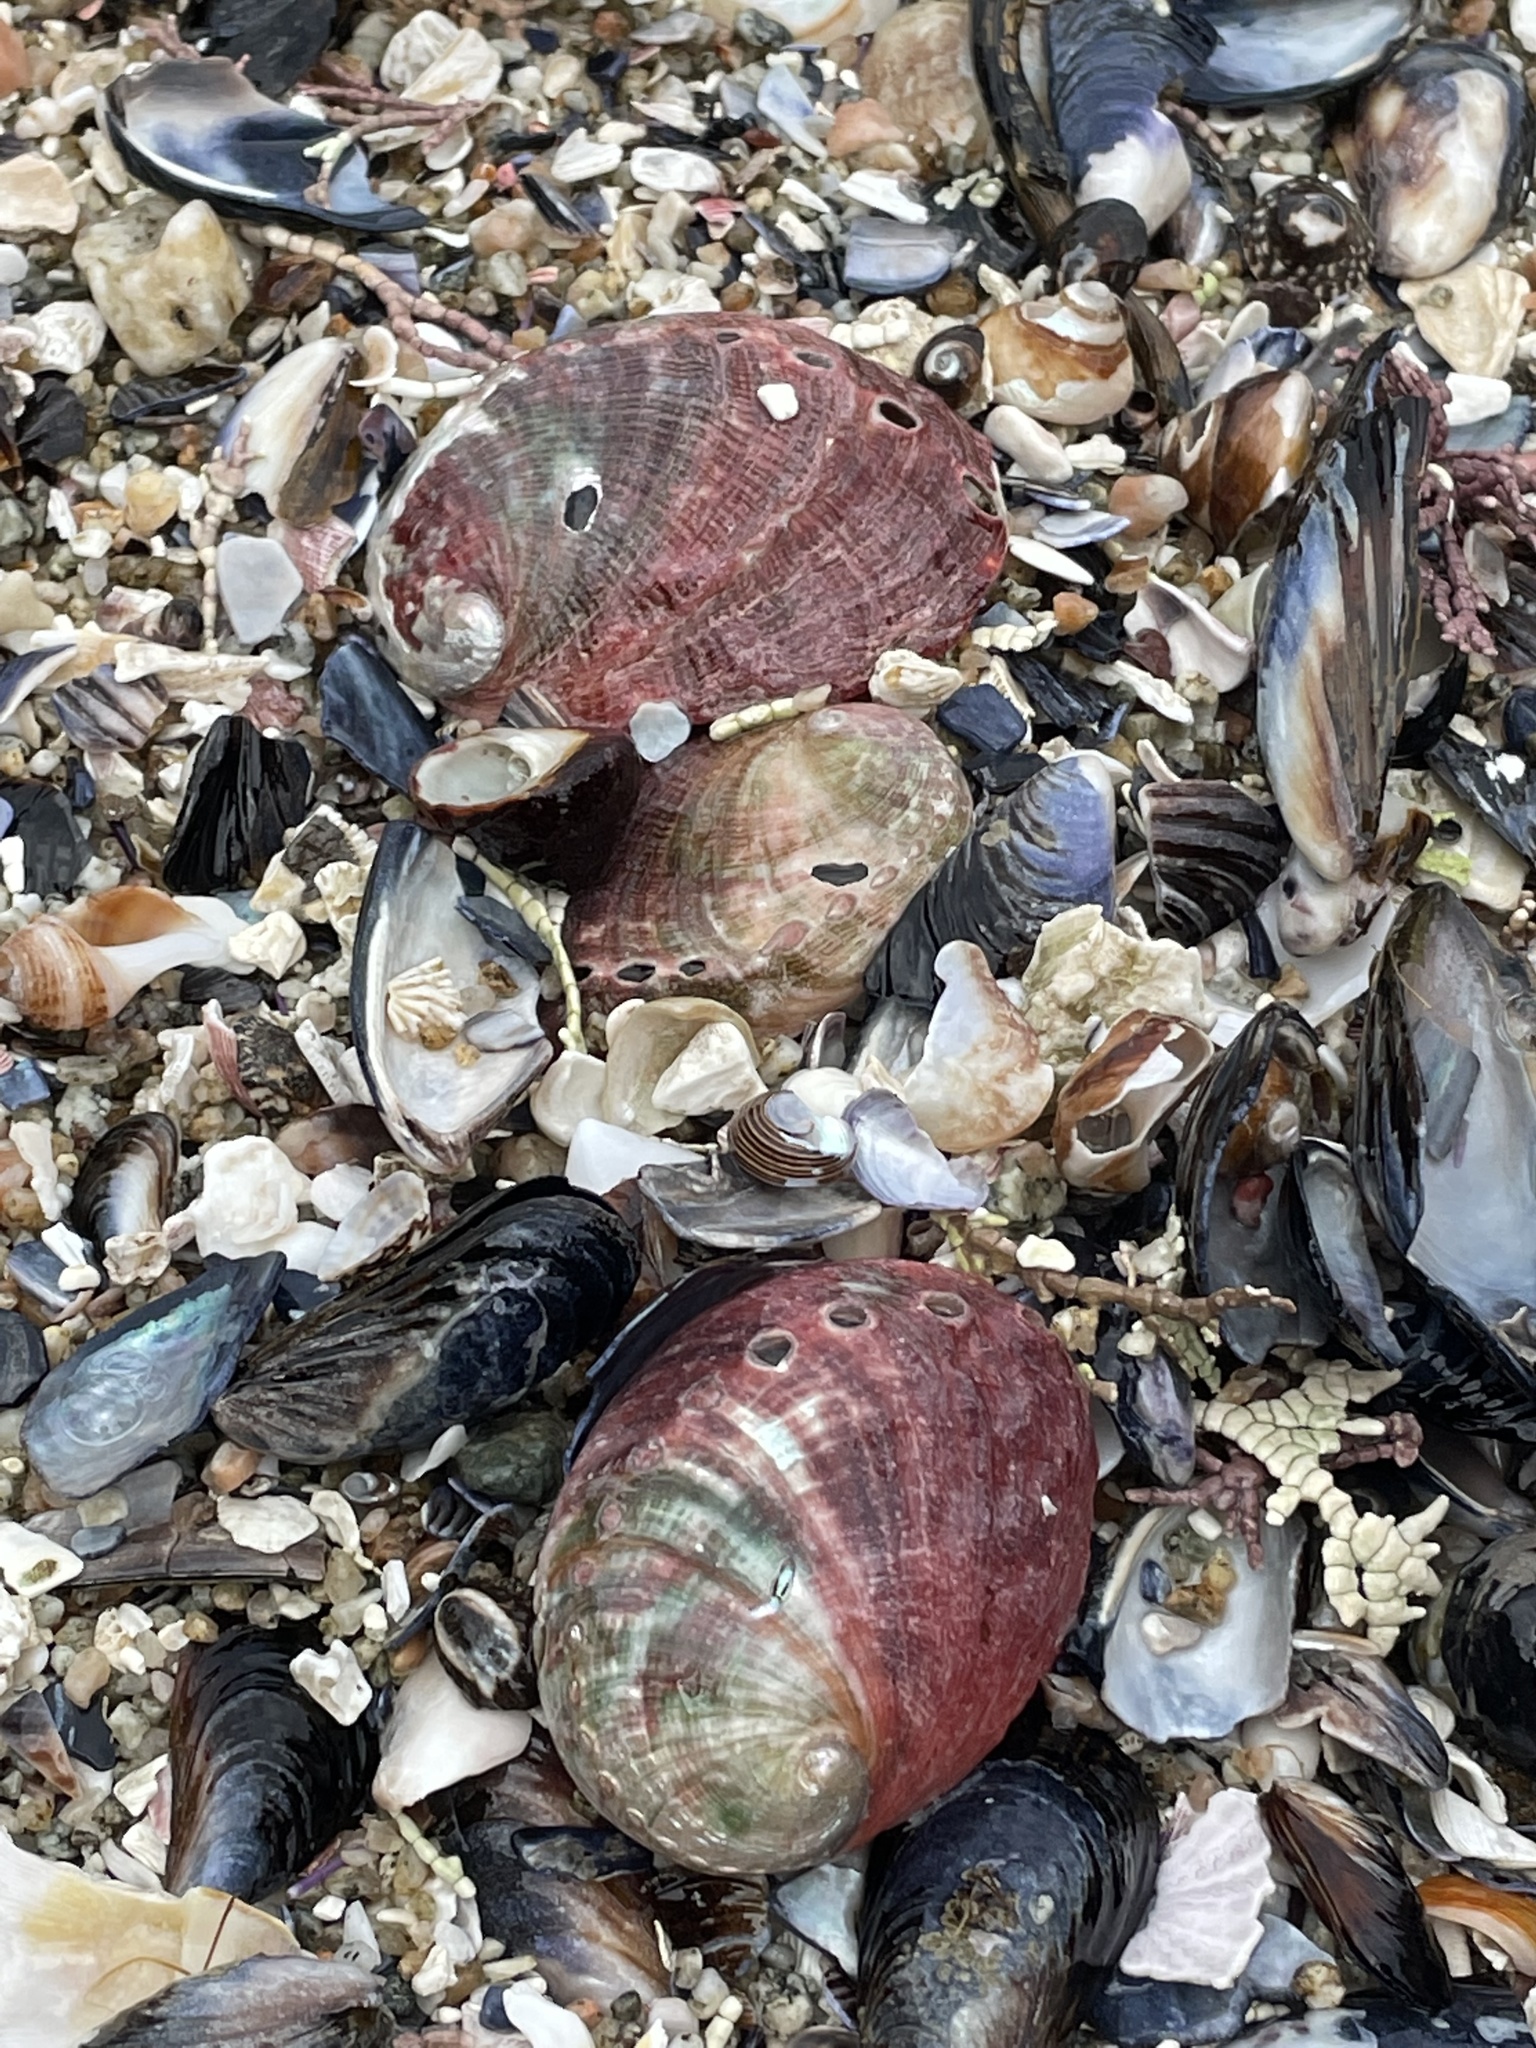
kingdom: Animalia
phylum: Mollusca
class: Gastropoda
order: Lepetellida
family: Haliotidae
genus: Haliotis
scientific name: Haliotis rufescens
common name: Red abalone
